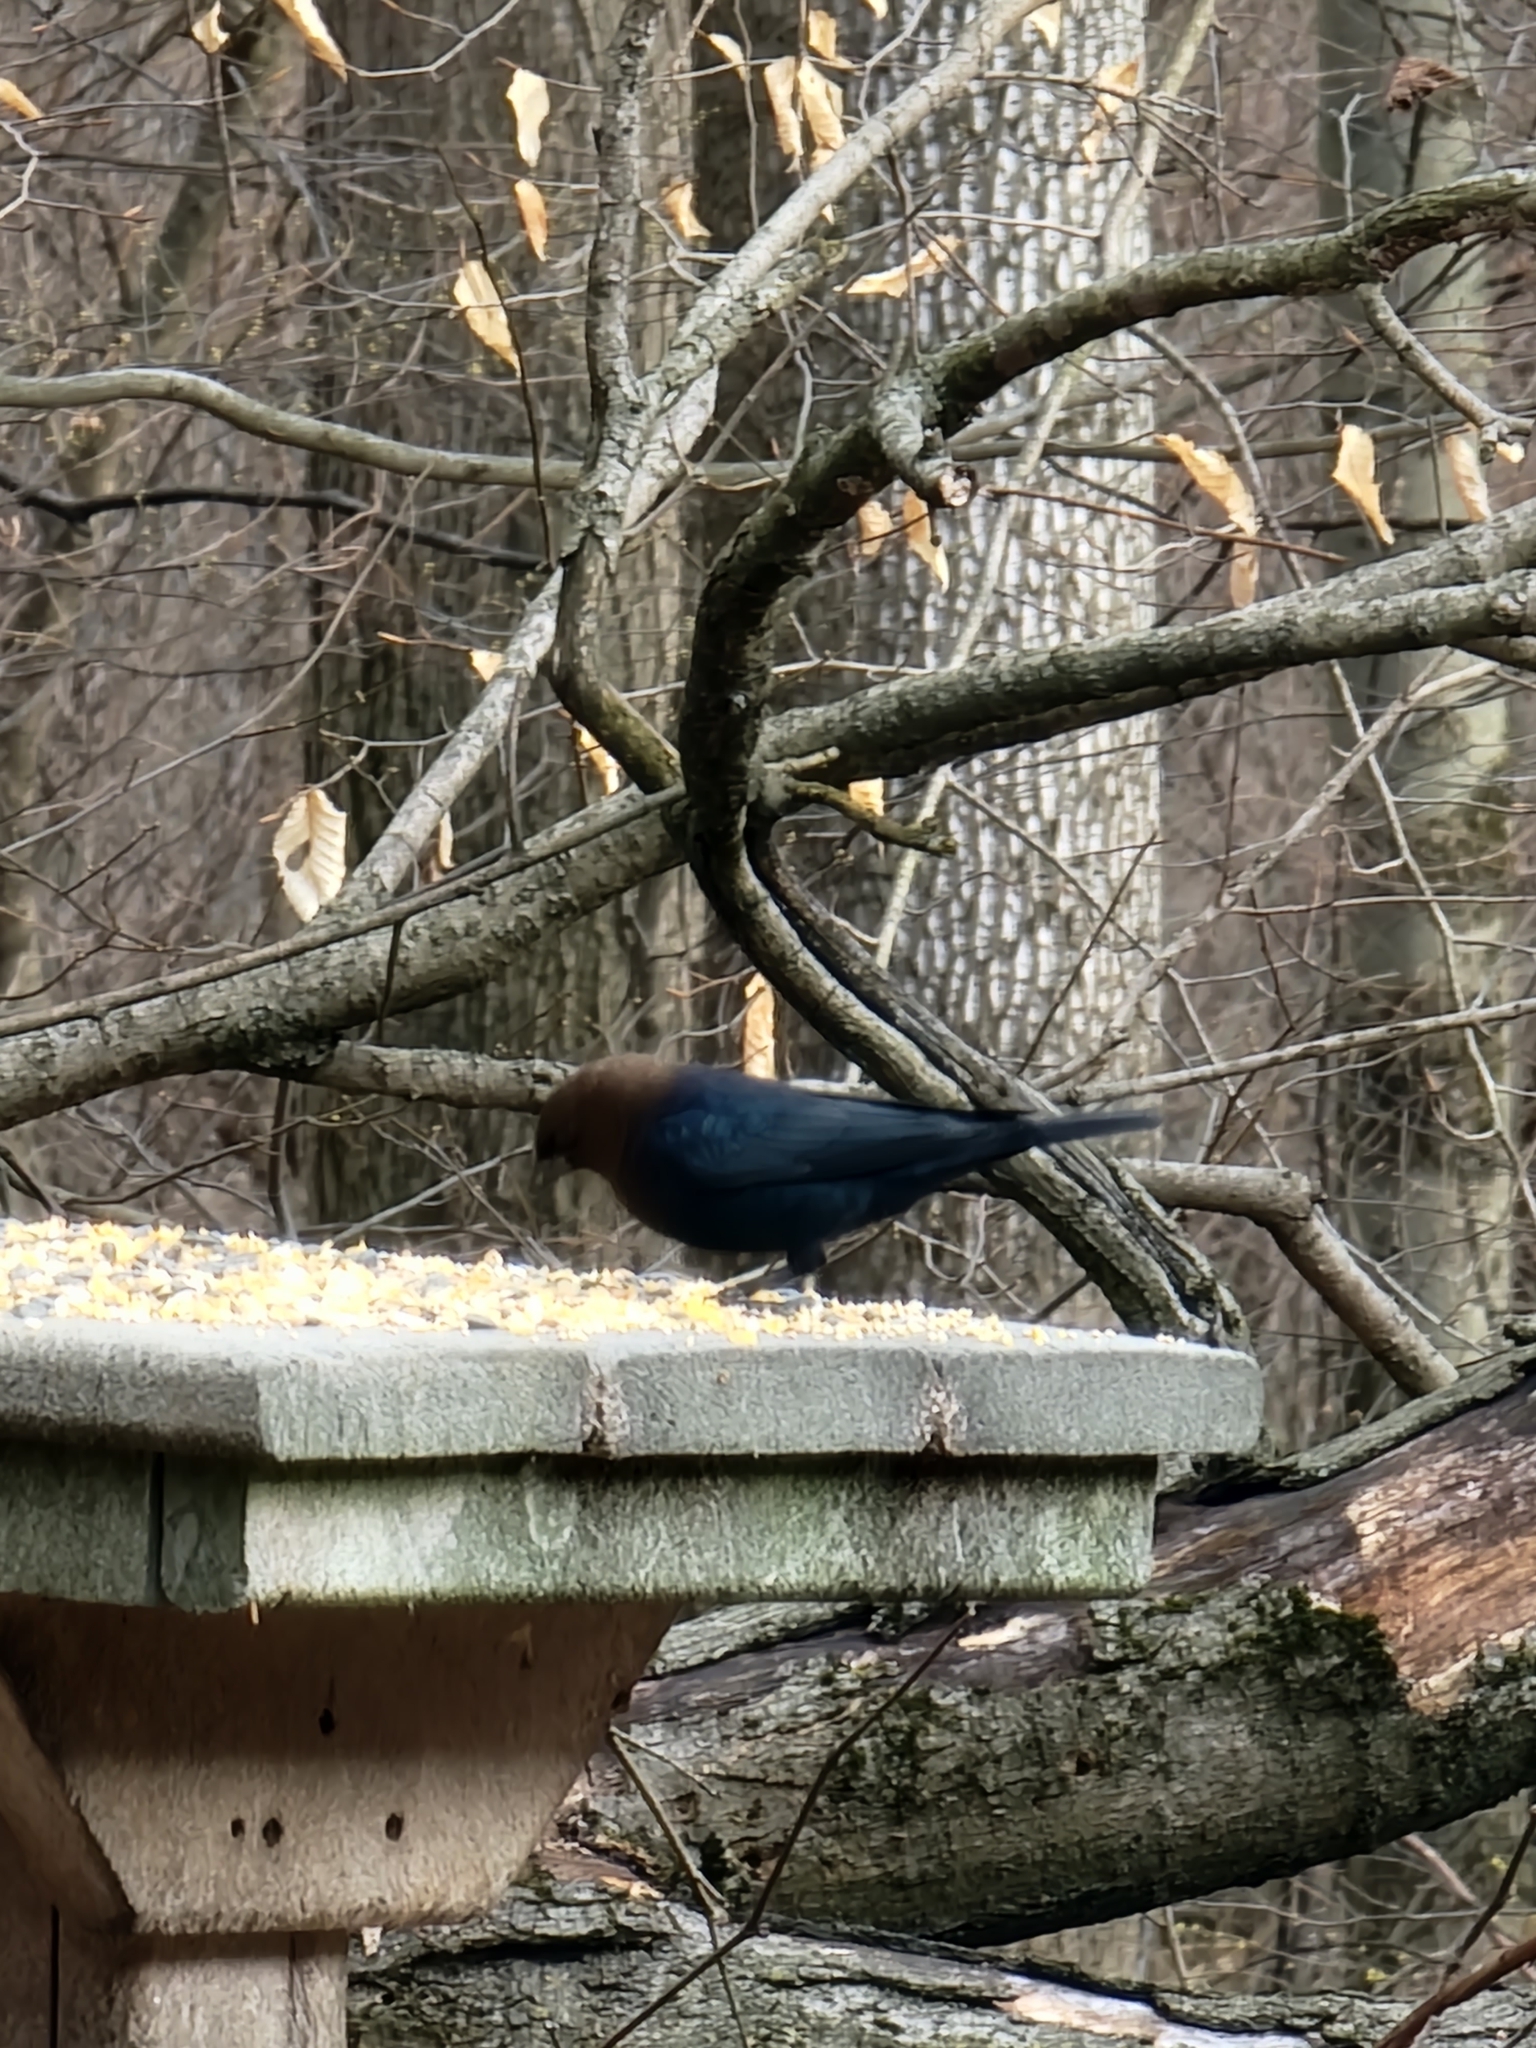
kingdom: Animalia
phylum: Chordata
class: Aves
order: Passeriformes
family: Icteridae
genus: Molothrus
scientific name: Molothrus ater
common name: Brown-headed cowbird
